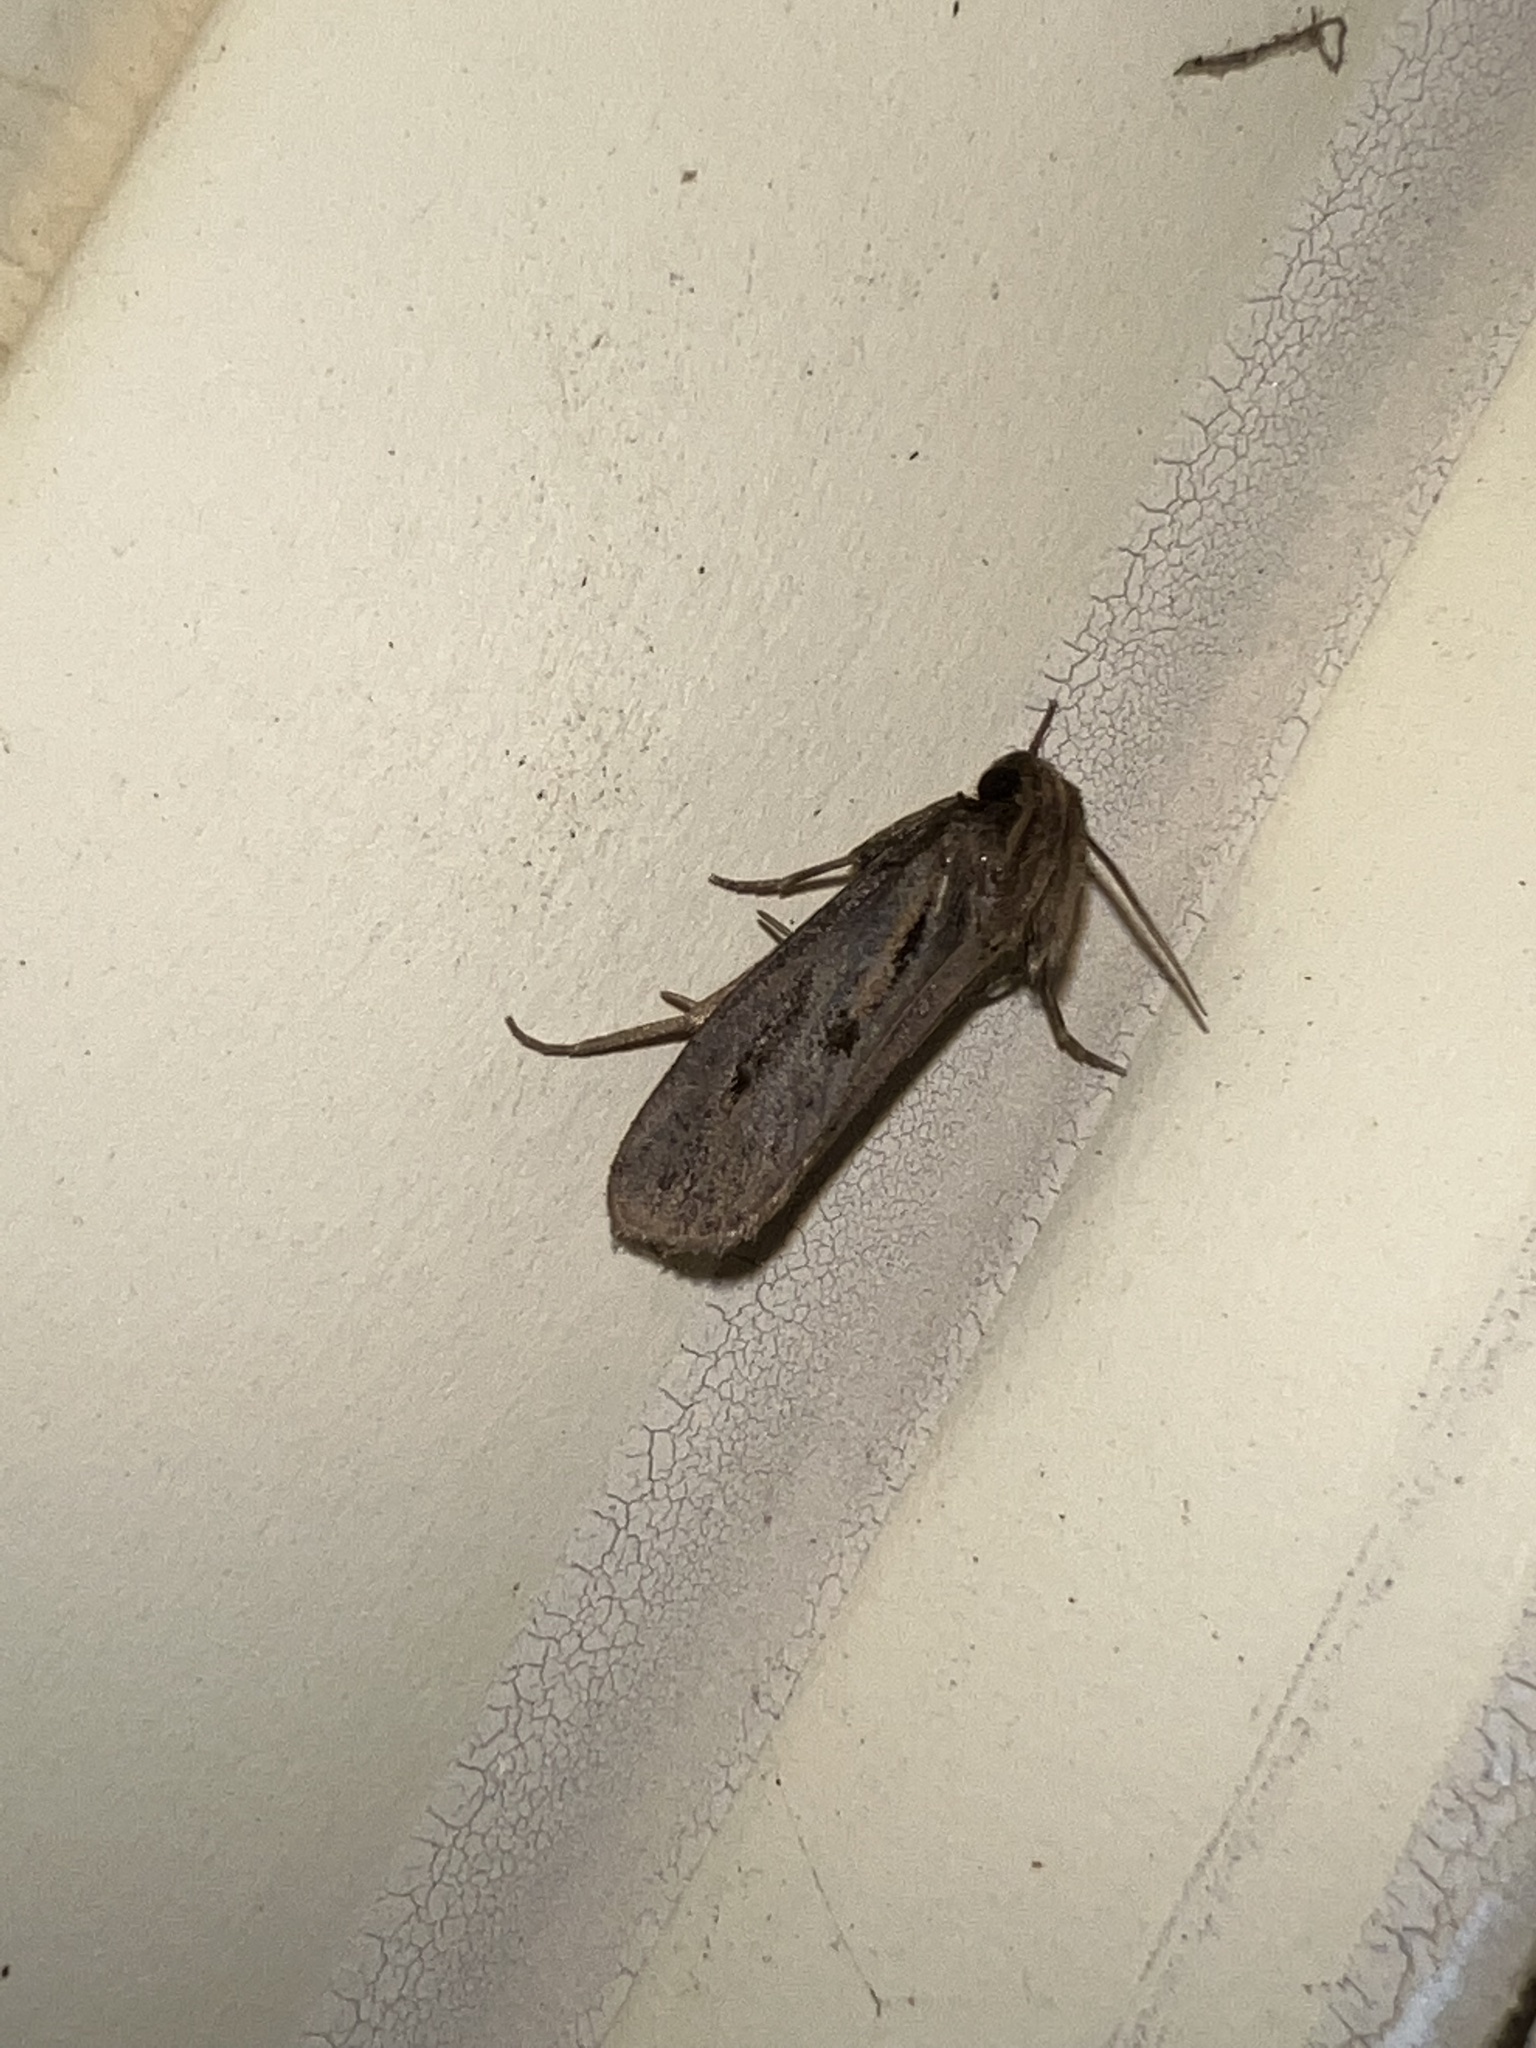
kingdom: Animalia
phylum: Arthropoda
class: Insecta
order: Lepidoptera
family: Tineidae
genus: Acrolophus
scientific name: Acrolophus popeanella
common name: Clemens' grass tubeworm moth
